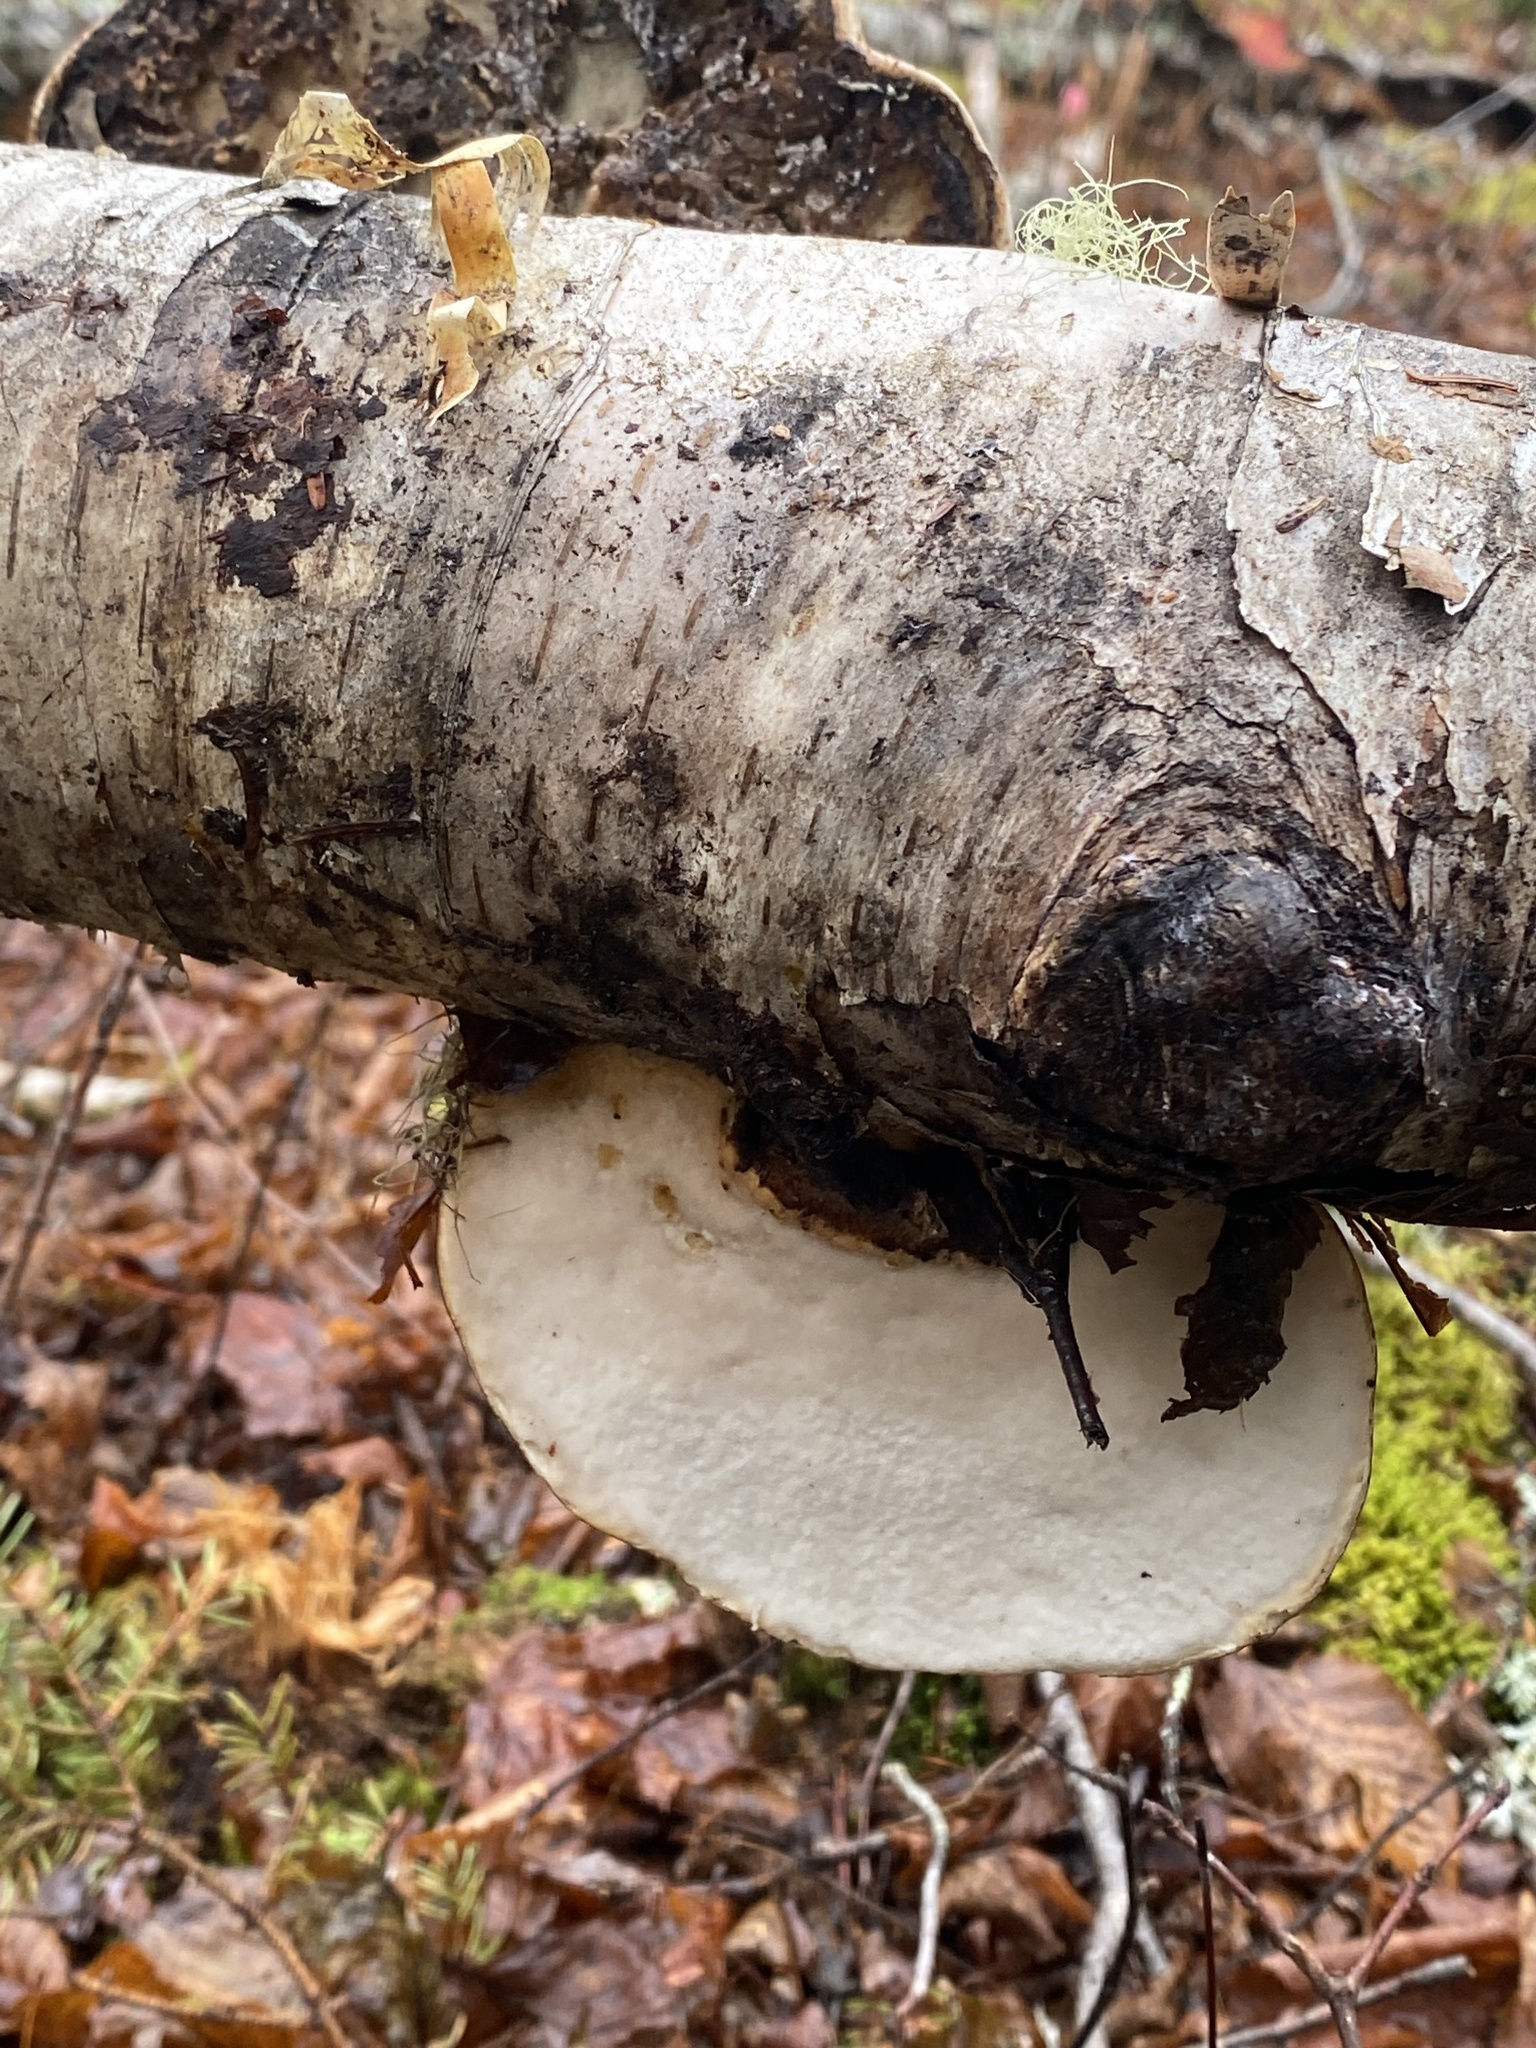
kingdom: Fungi
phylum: Basidiomycota
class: Agaricomycetes
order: Polyporales
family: Fomitopsidaceae
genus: Fomitopsis
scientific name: Fomitopsis betulina
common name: Birch polypore
